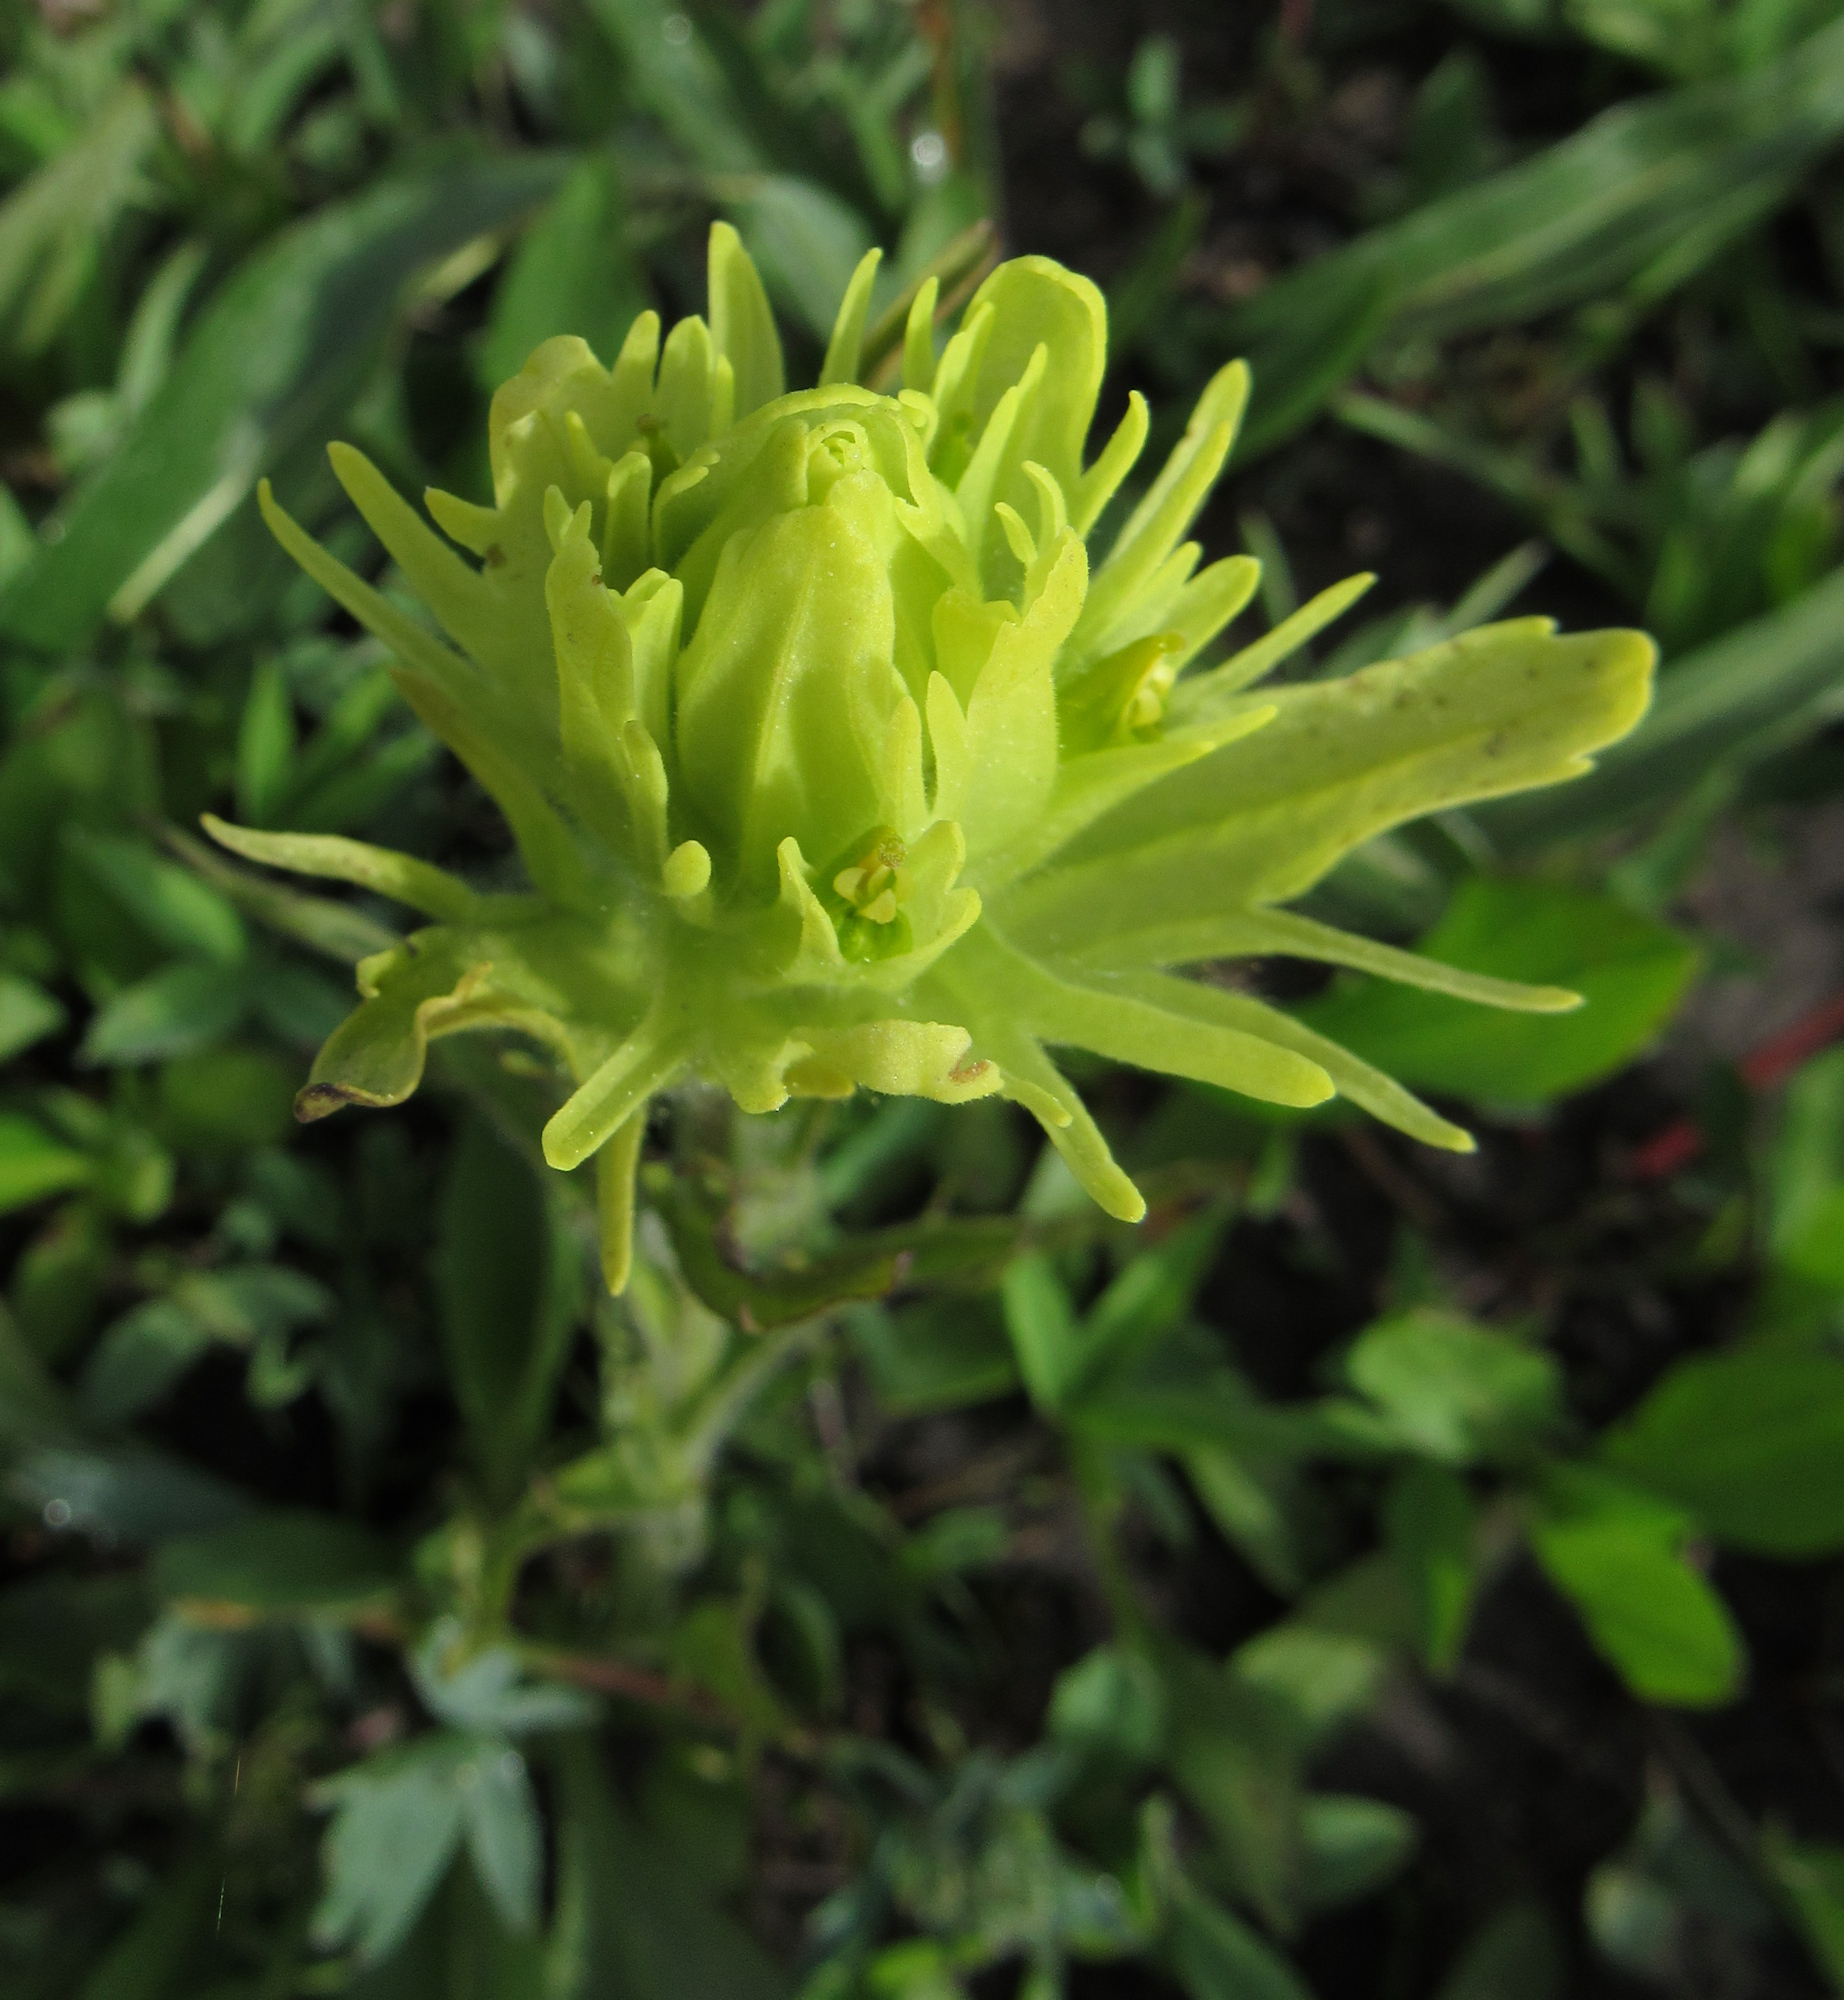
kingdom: Plantae
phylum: Tracheophyta
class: Magnoliopsida
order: Lamiales
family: Orobanchaceae
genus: Castilleja
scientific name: Castilleja cusickii
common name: Cusick's paintbrush
